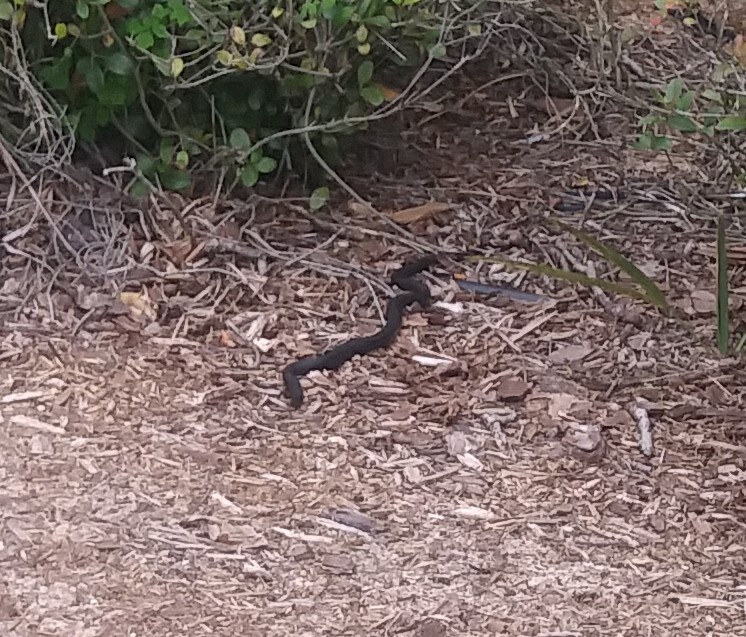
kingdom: Animalia
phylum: Chordata
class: Squamata
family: Colubridae
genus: Coluber
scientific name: Coluber constrictor
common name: Eastern racer
